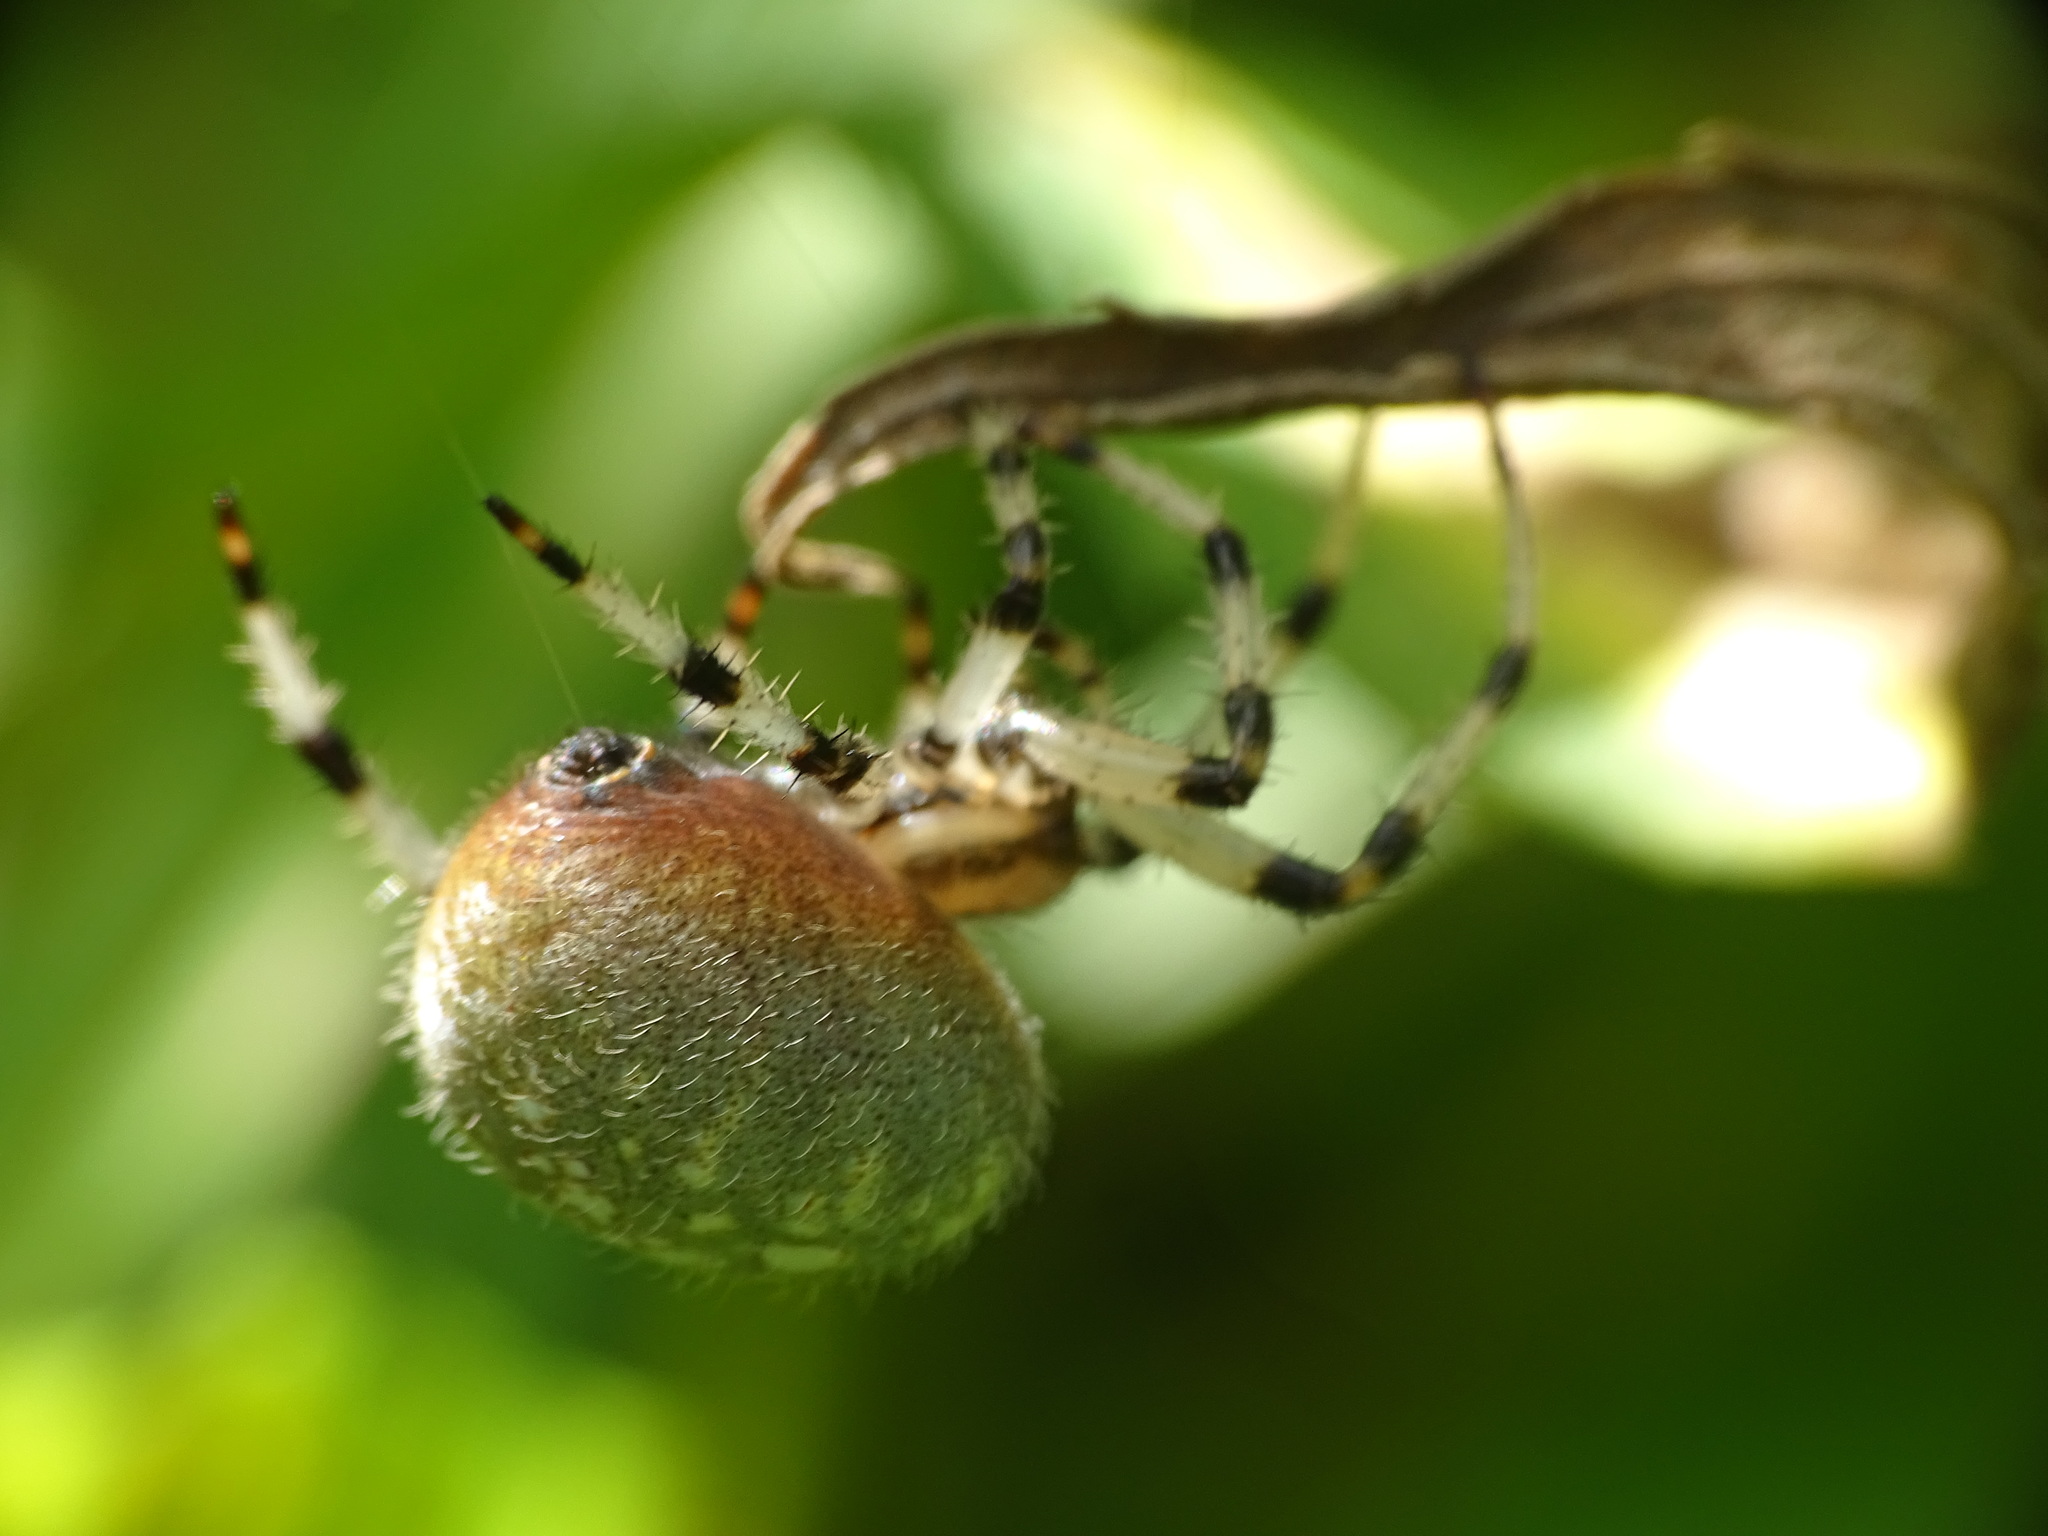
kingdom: Animalia
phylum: Arthropoda
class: Arachnida
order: Araneae
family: Araneidae
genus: Araneus
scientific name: Araneus trifolium
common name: Shamrock orbweaver
